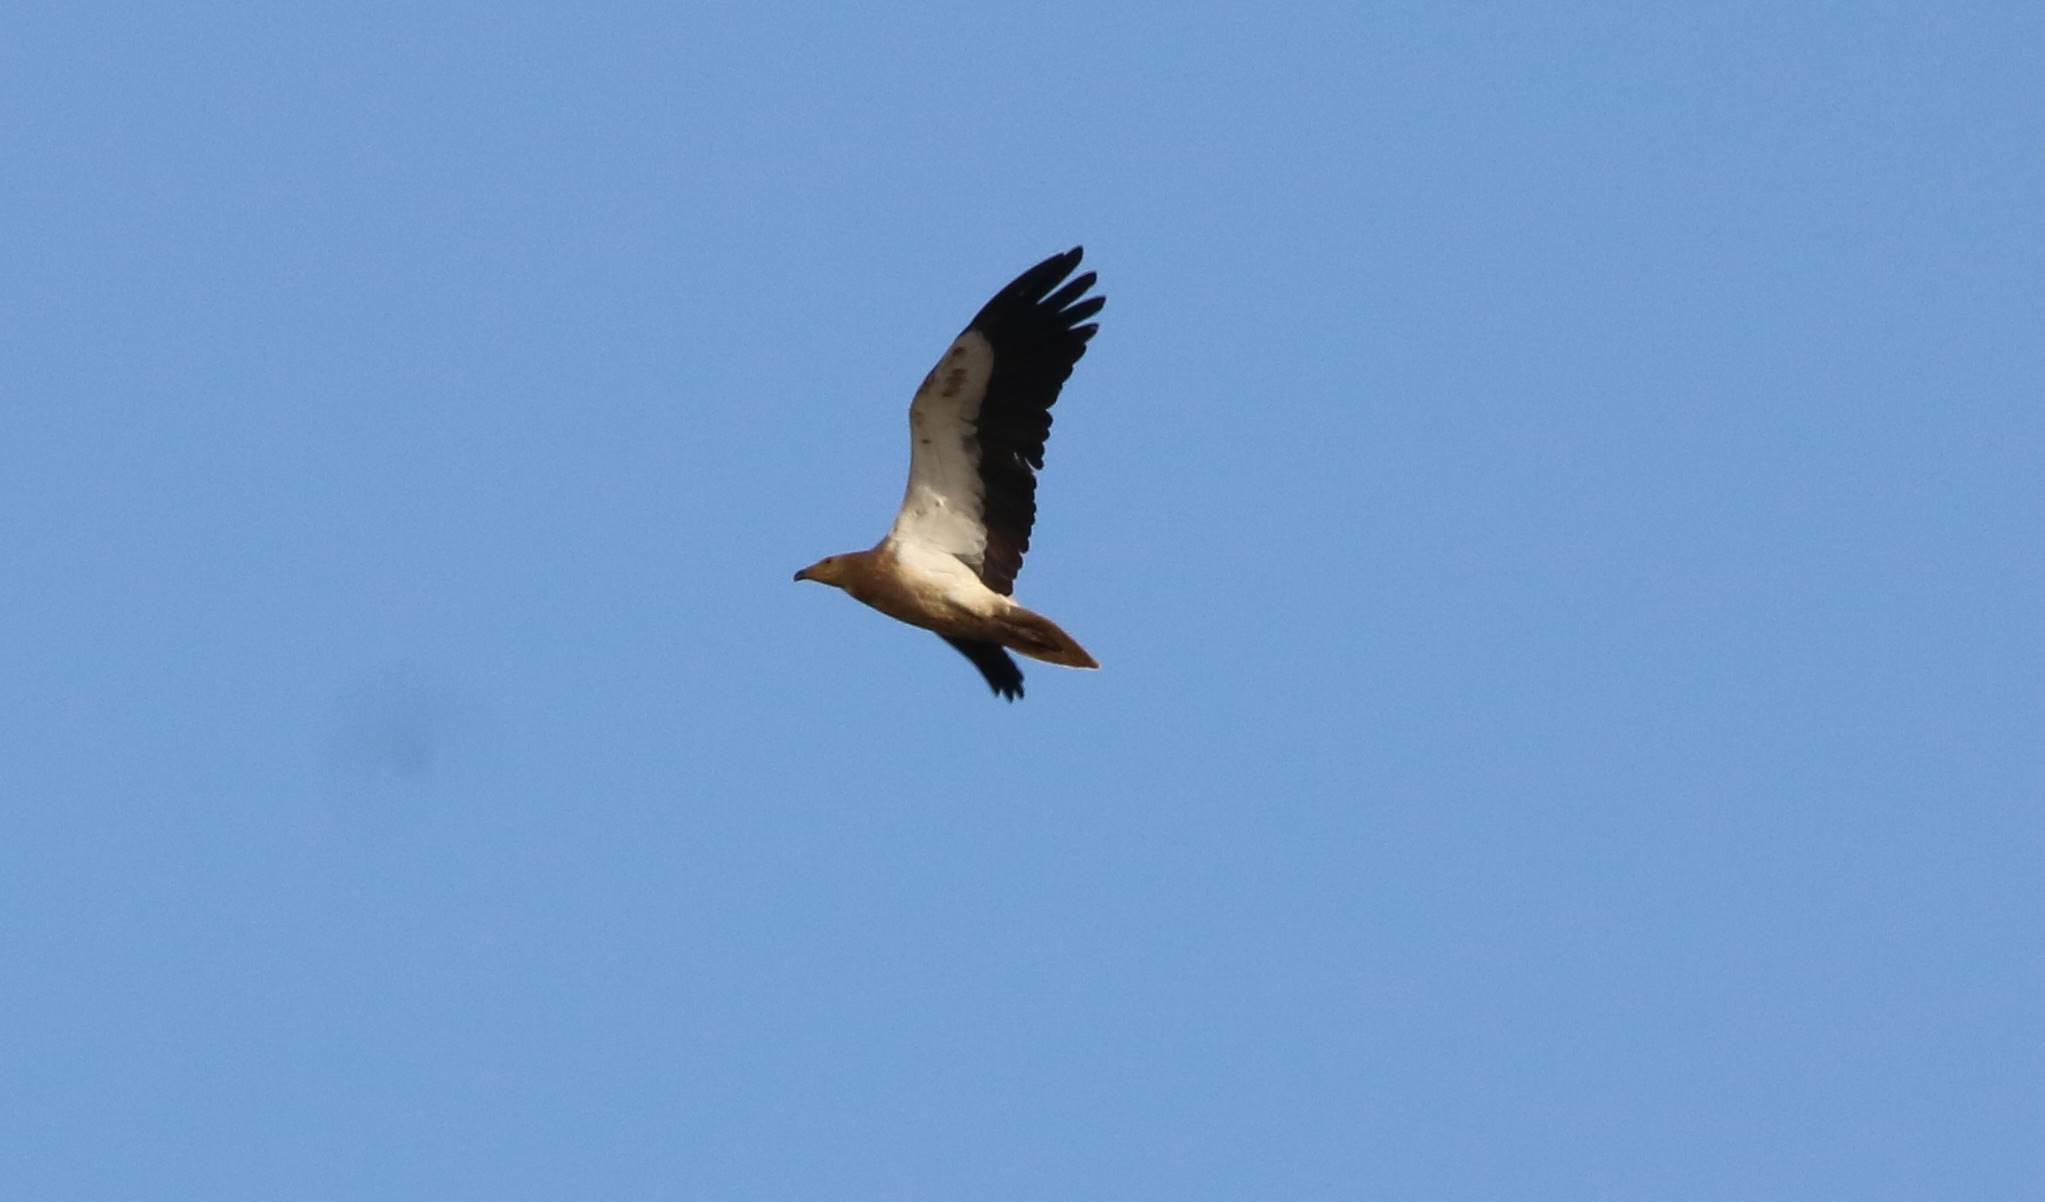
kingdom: Animalia
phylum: Chordata
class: Aves
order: Accipitriformes
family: Accipitridae
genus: Neophron
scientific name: Neophron percnopterus
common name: Egyptian vulture
